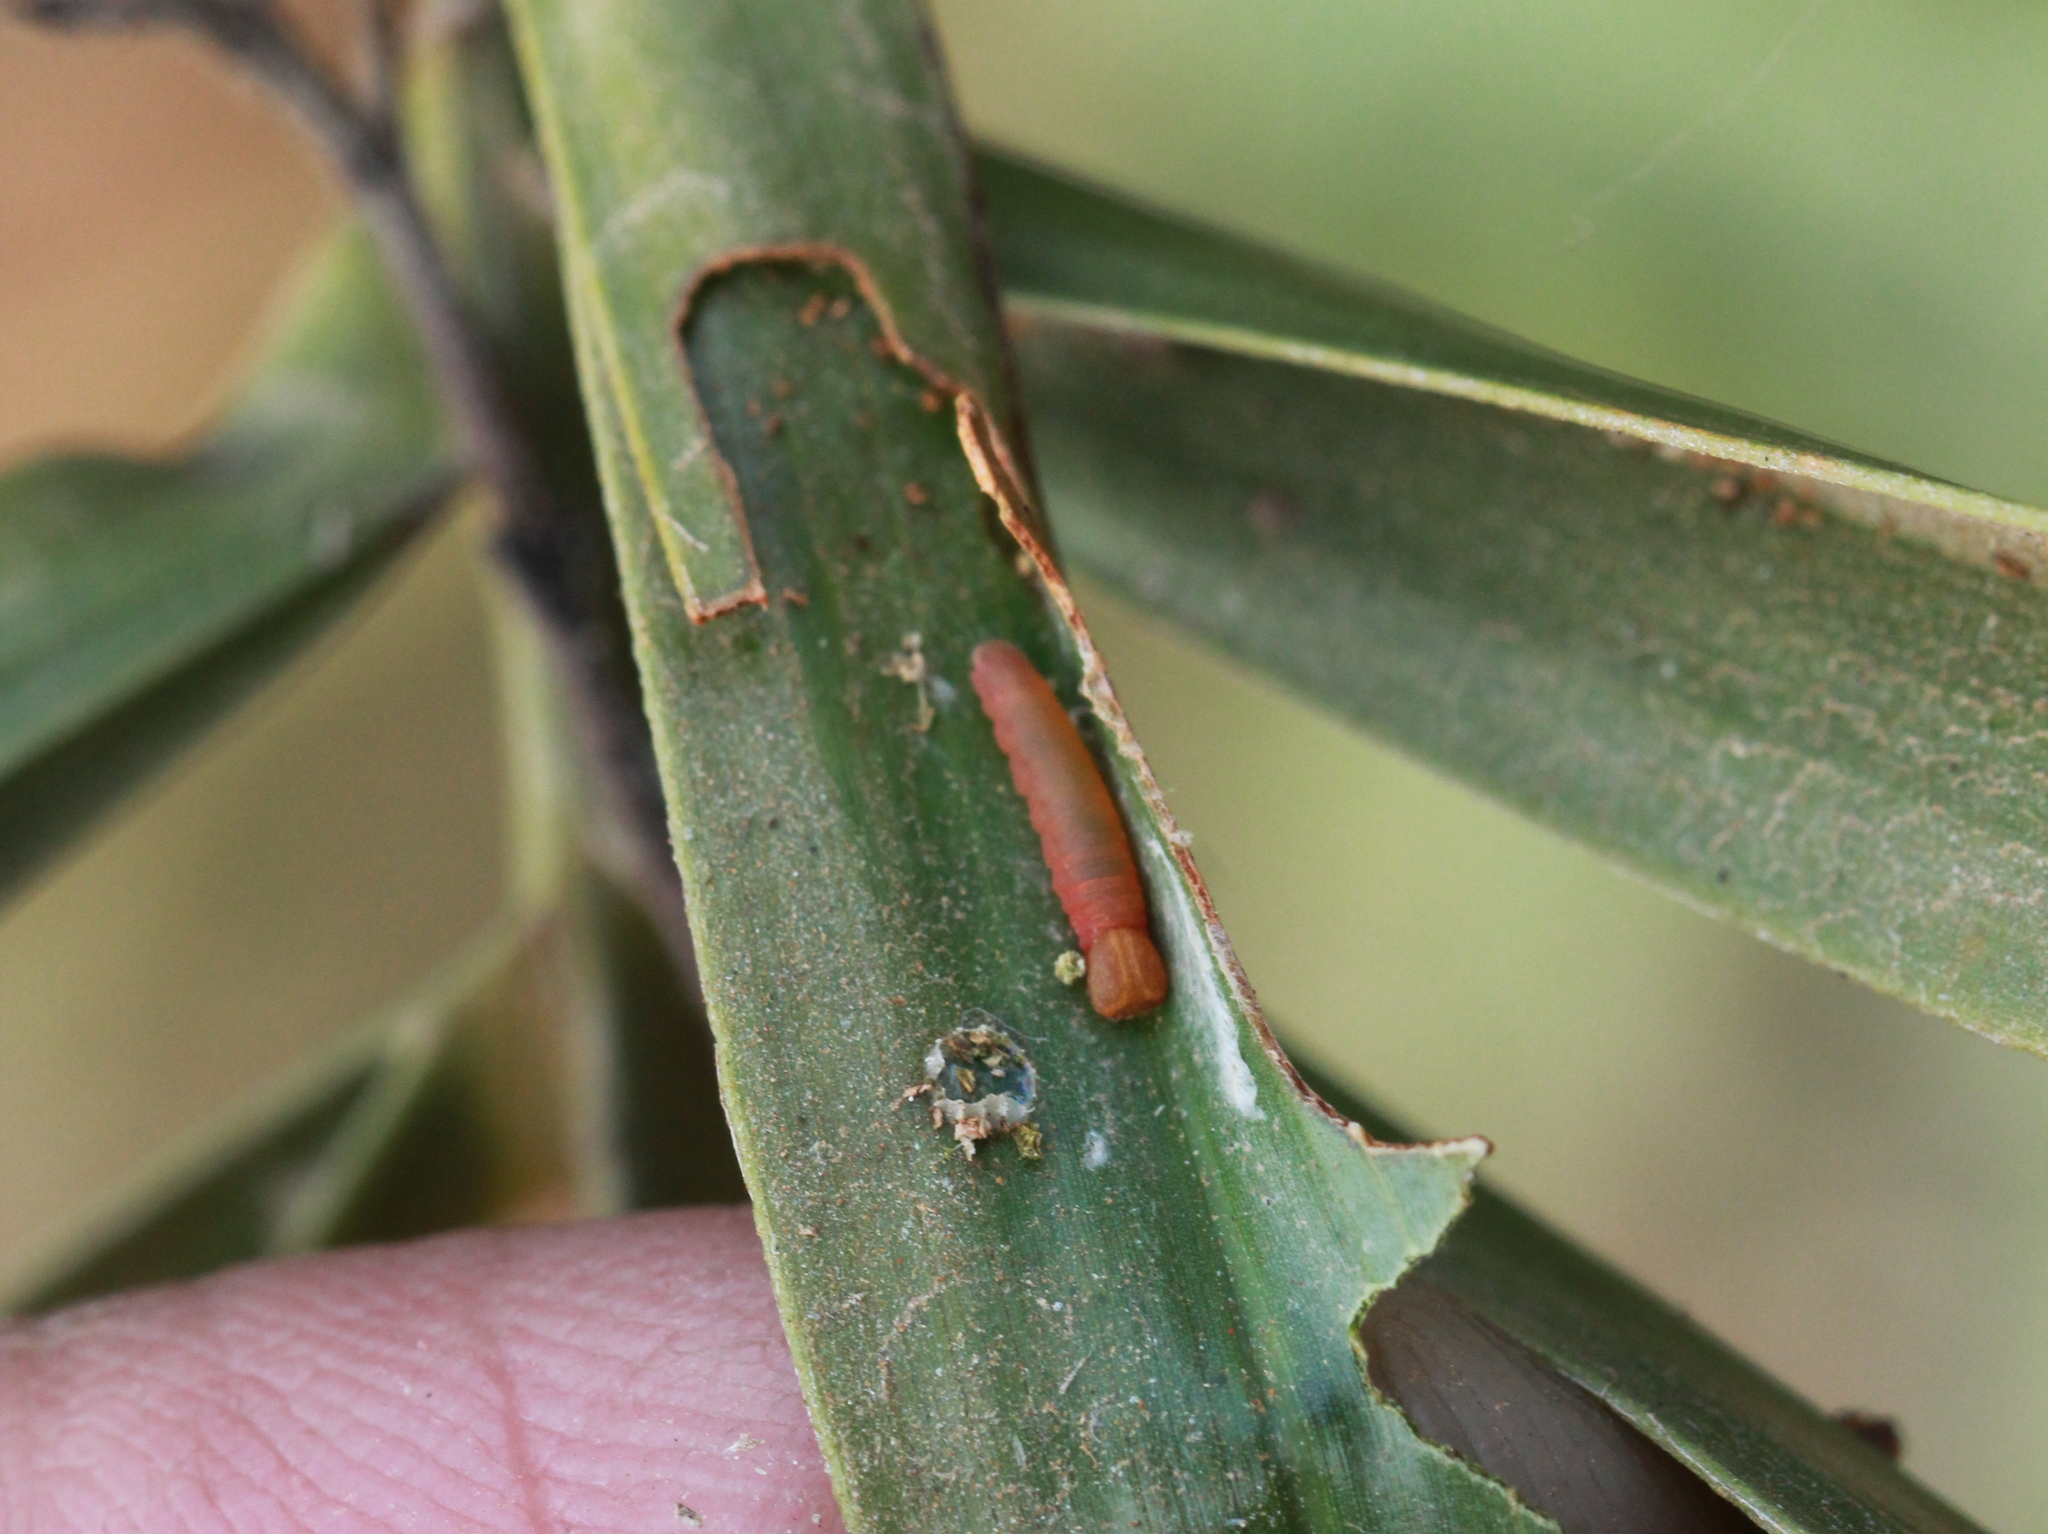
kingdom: Animalia
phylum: Arthropoda
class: Insecta
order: Lepidoptera
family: Hesperiidae
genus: Suastus
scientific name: Suastus gremius
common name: Indian palm bob
